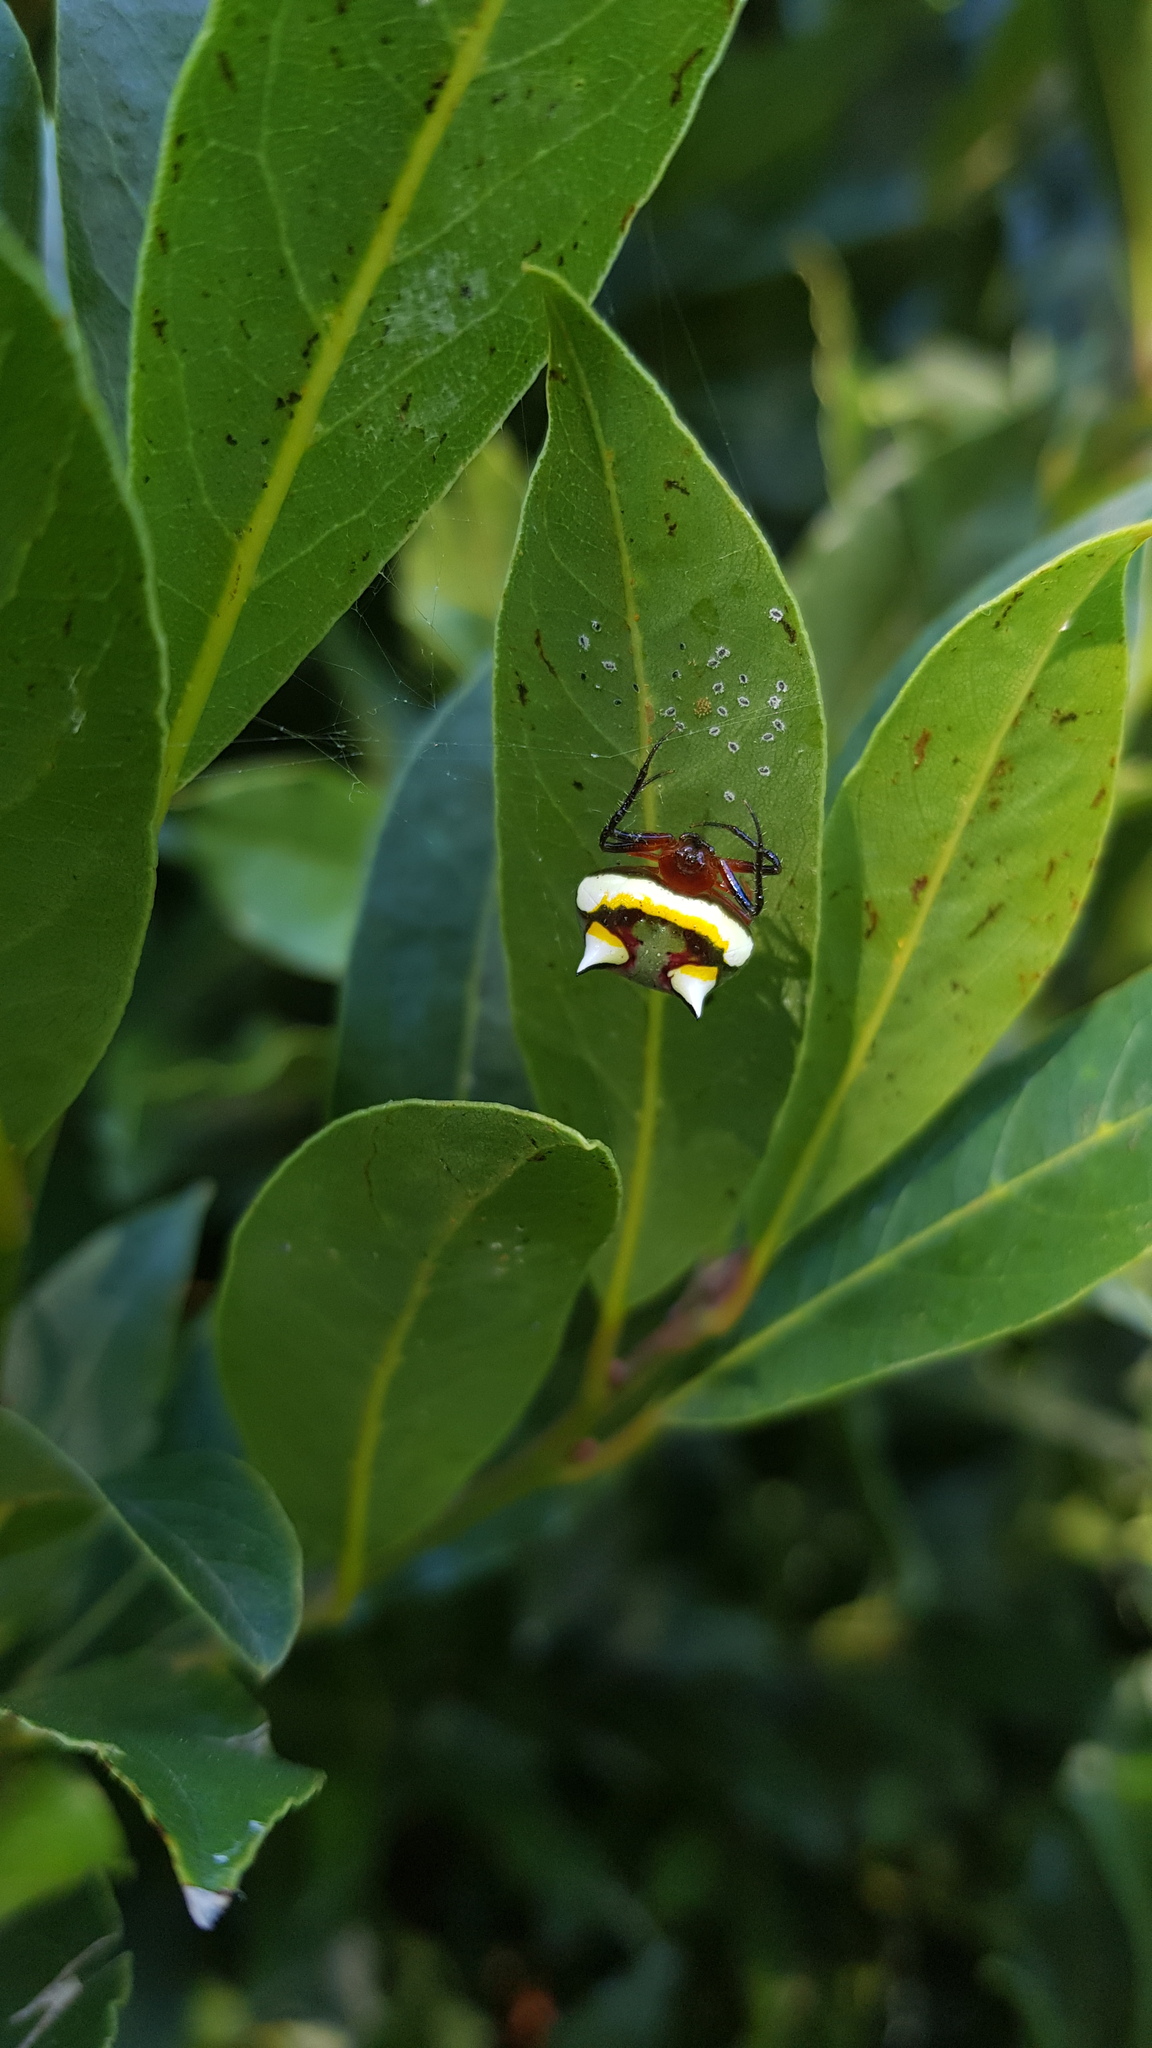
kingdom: Animalia
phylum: Arthropoda
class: Arachnida
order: Araneae
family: Araneidae
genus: Poecilopachys
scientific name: Poecilopachys australasia
